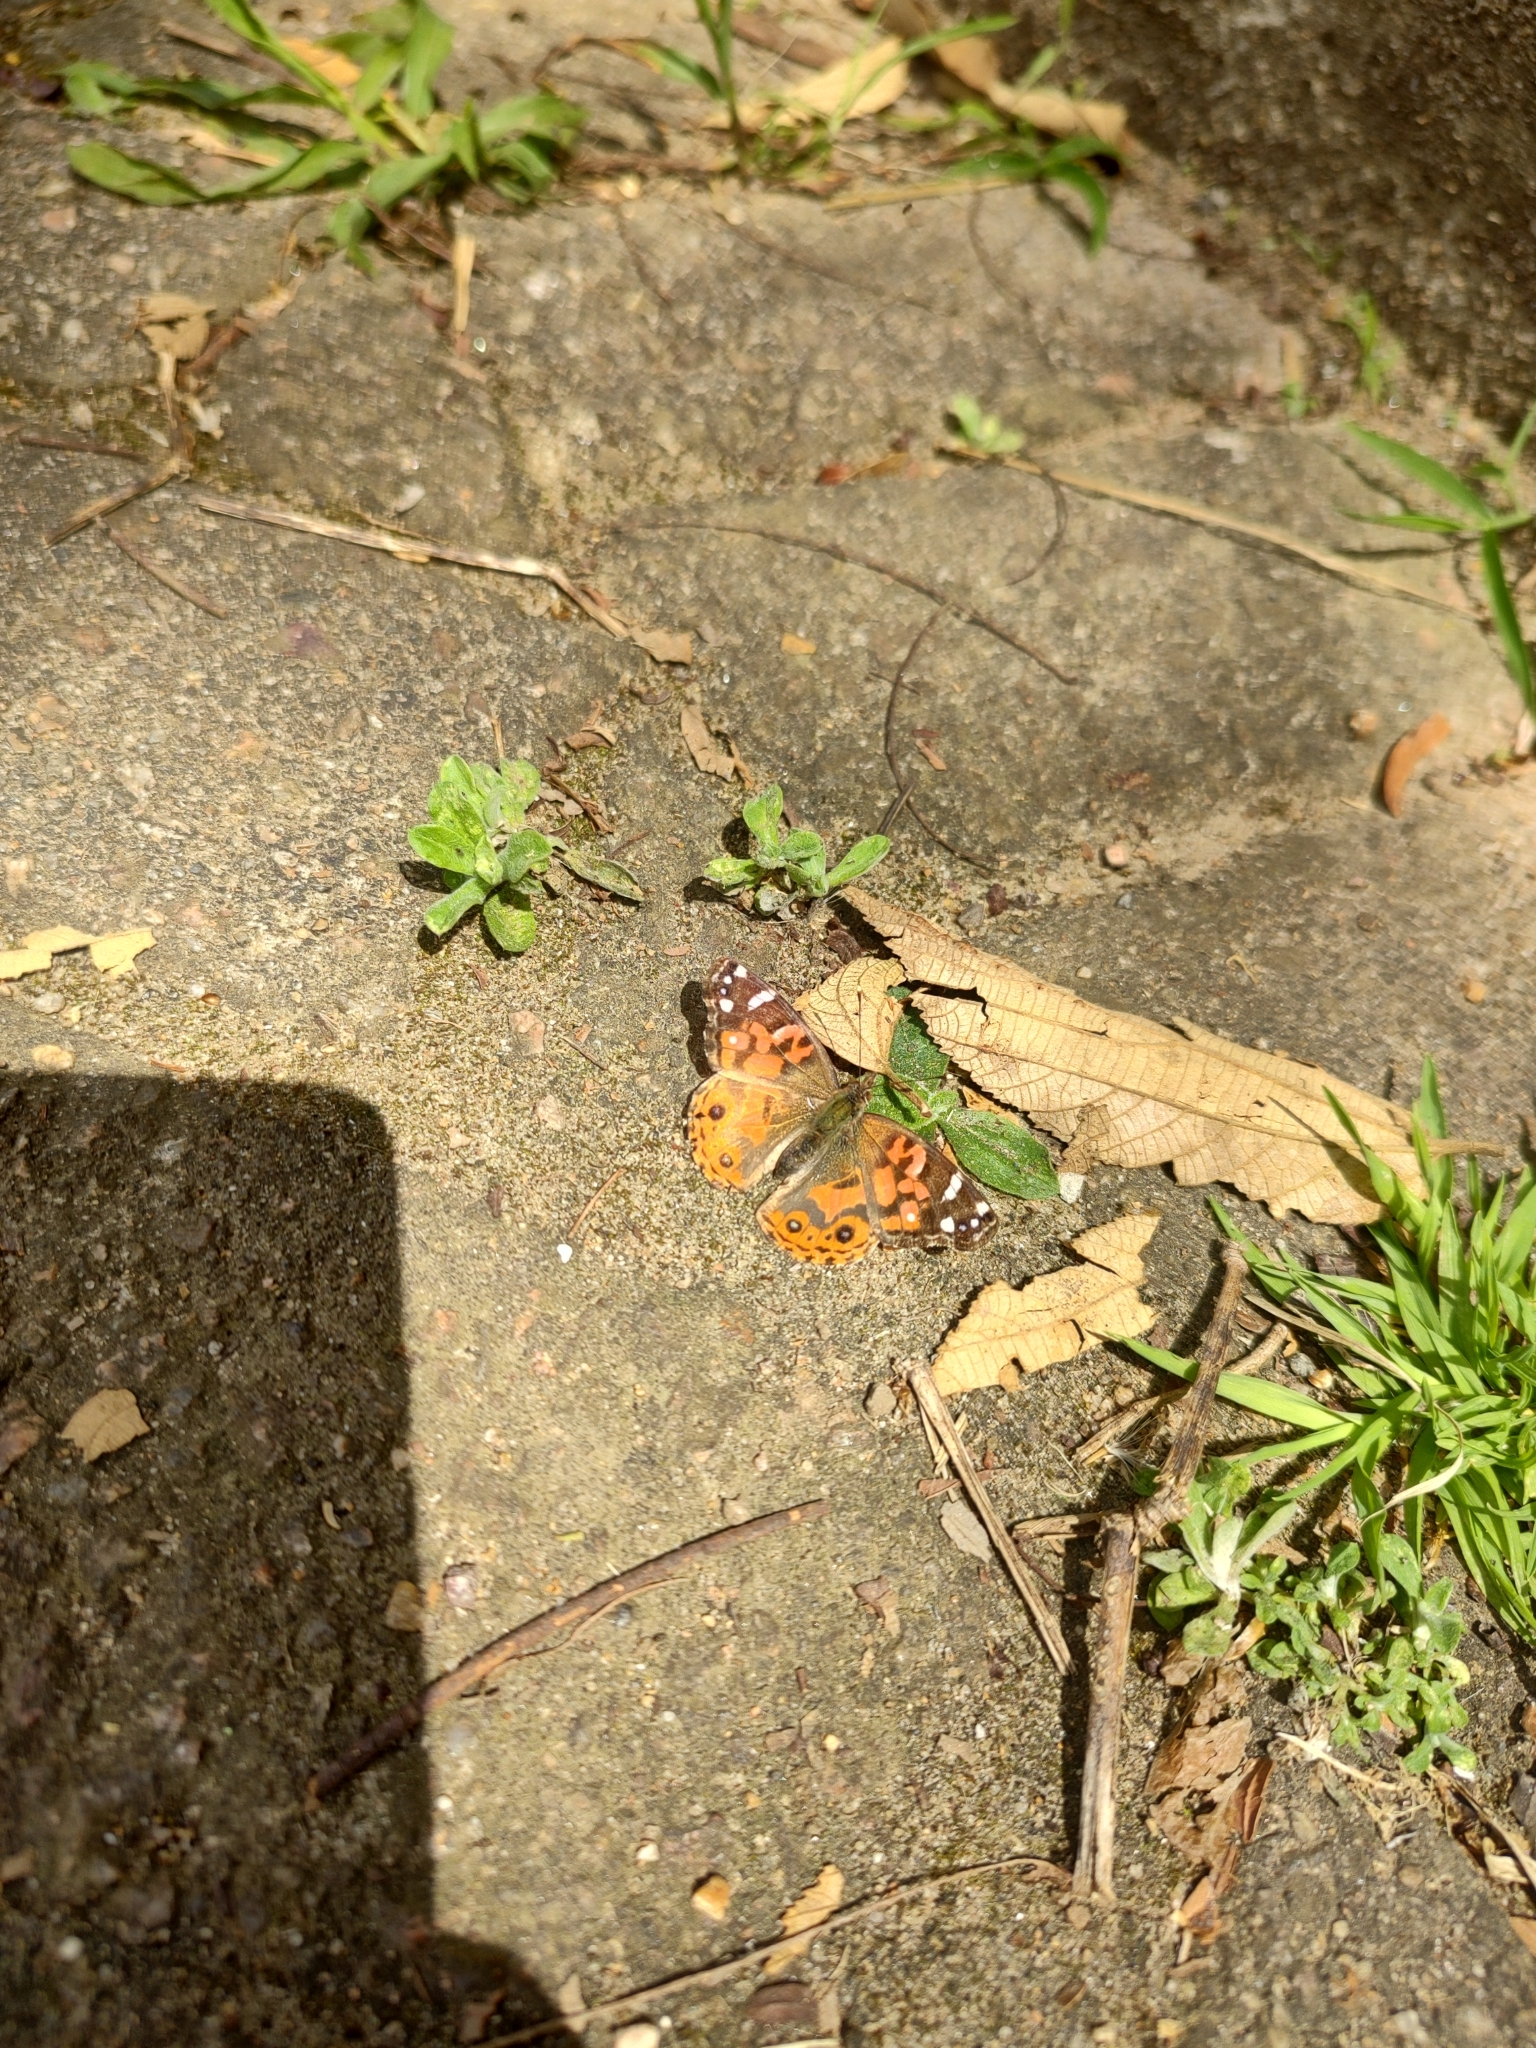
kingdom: Animalia
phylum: Arthropoda
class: Insecta
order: Lepidoptera
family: Nymphalidae
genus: Vanessa
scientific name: Vanessa braziliensis
